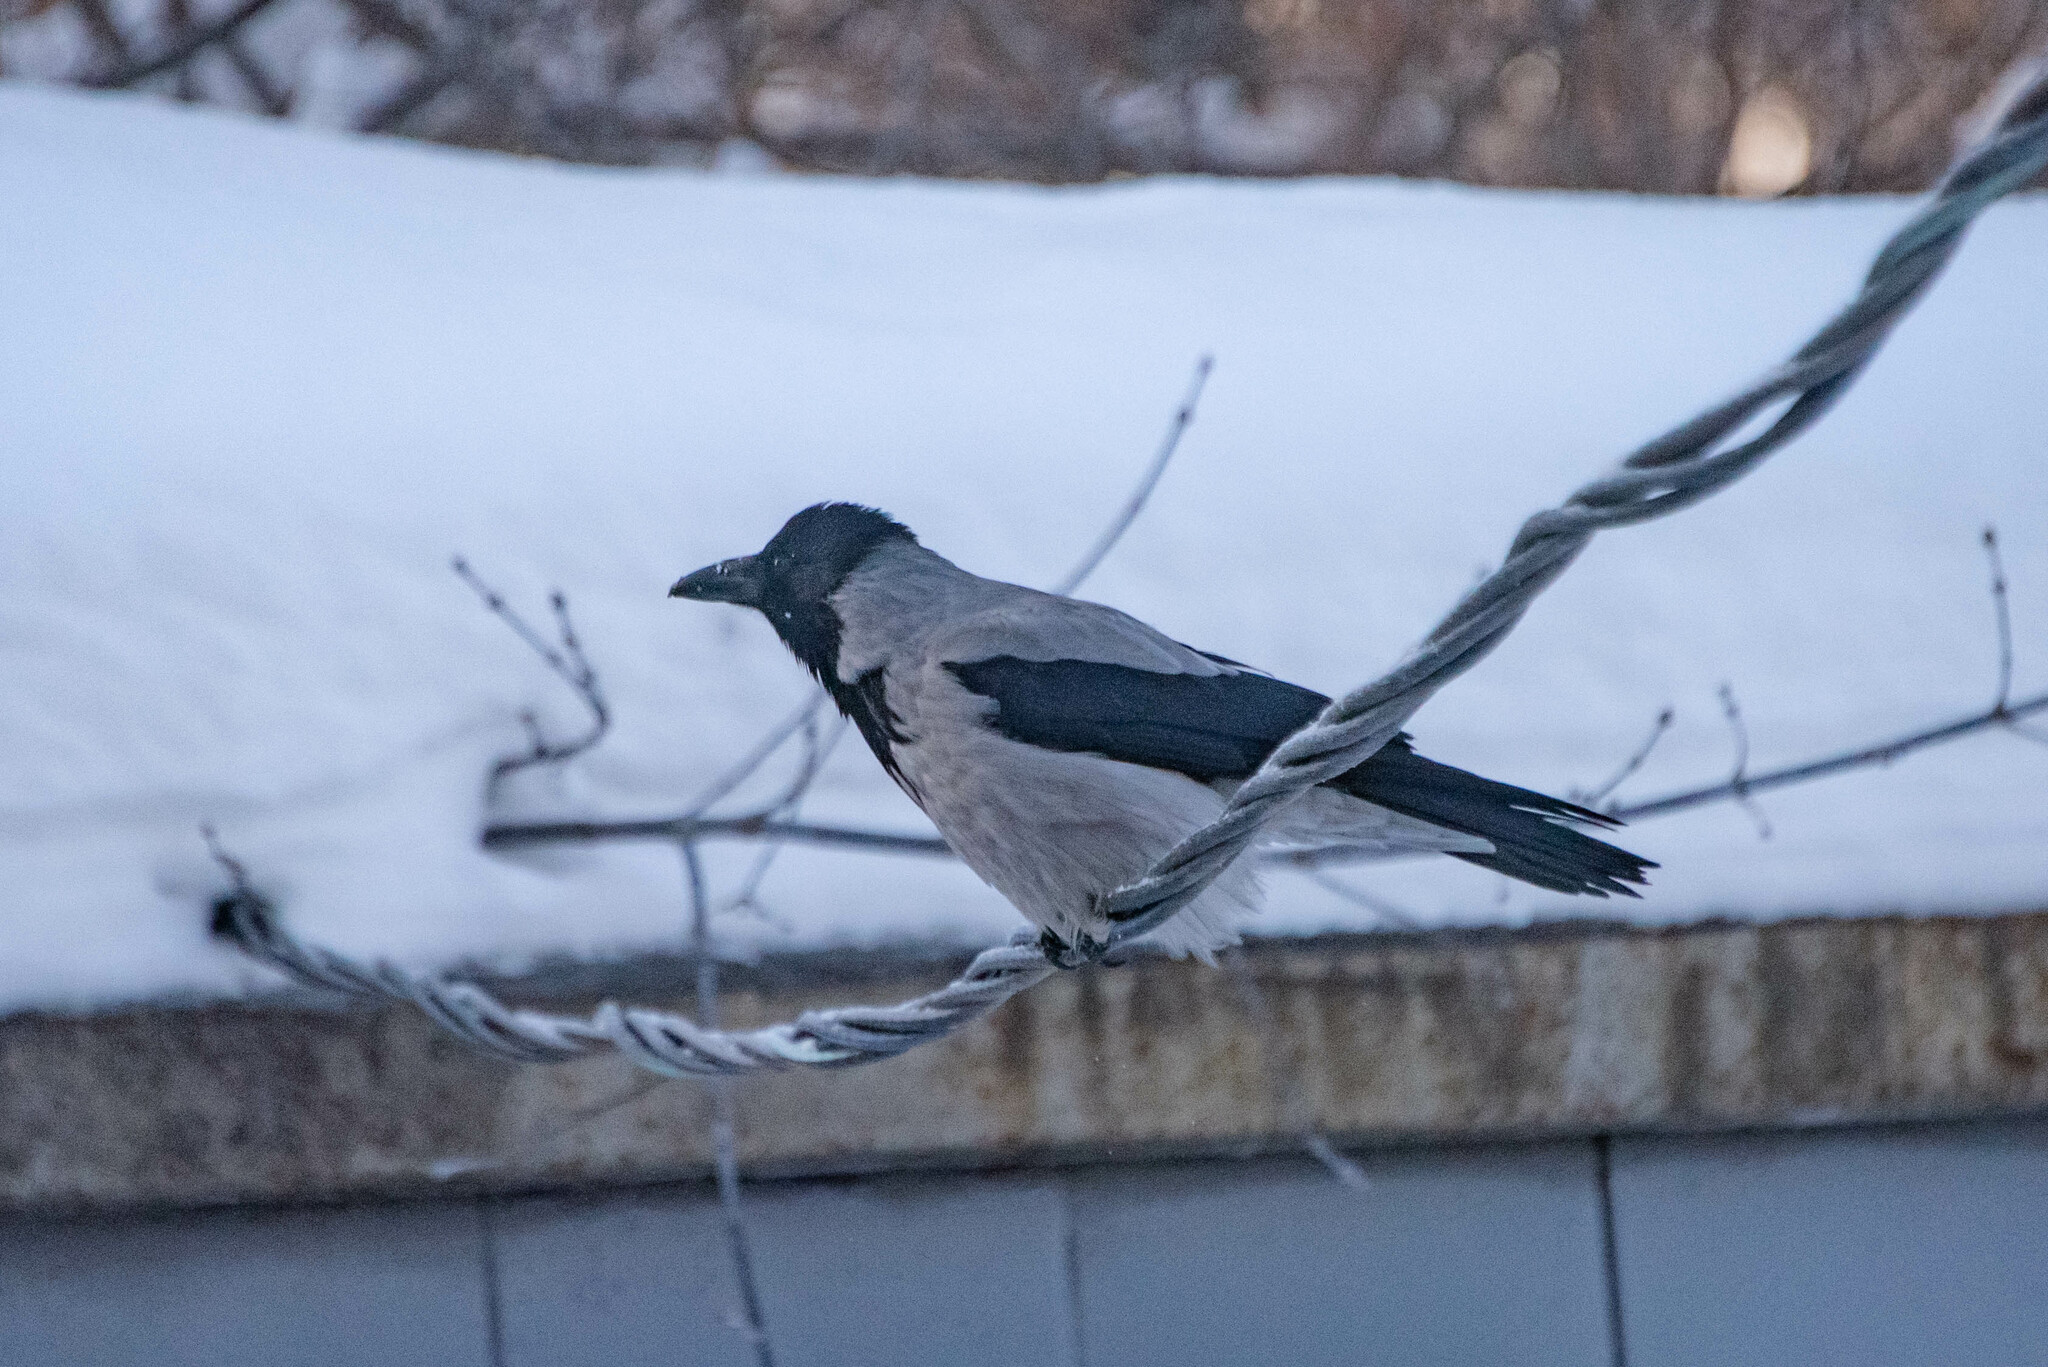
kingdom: Animalia
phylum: Chordata
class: Aves
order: Passeriformes
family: Corvidae
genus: Corvus
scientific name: Corvus cornix
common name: Hooded crow
